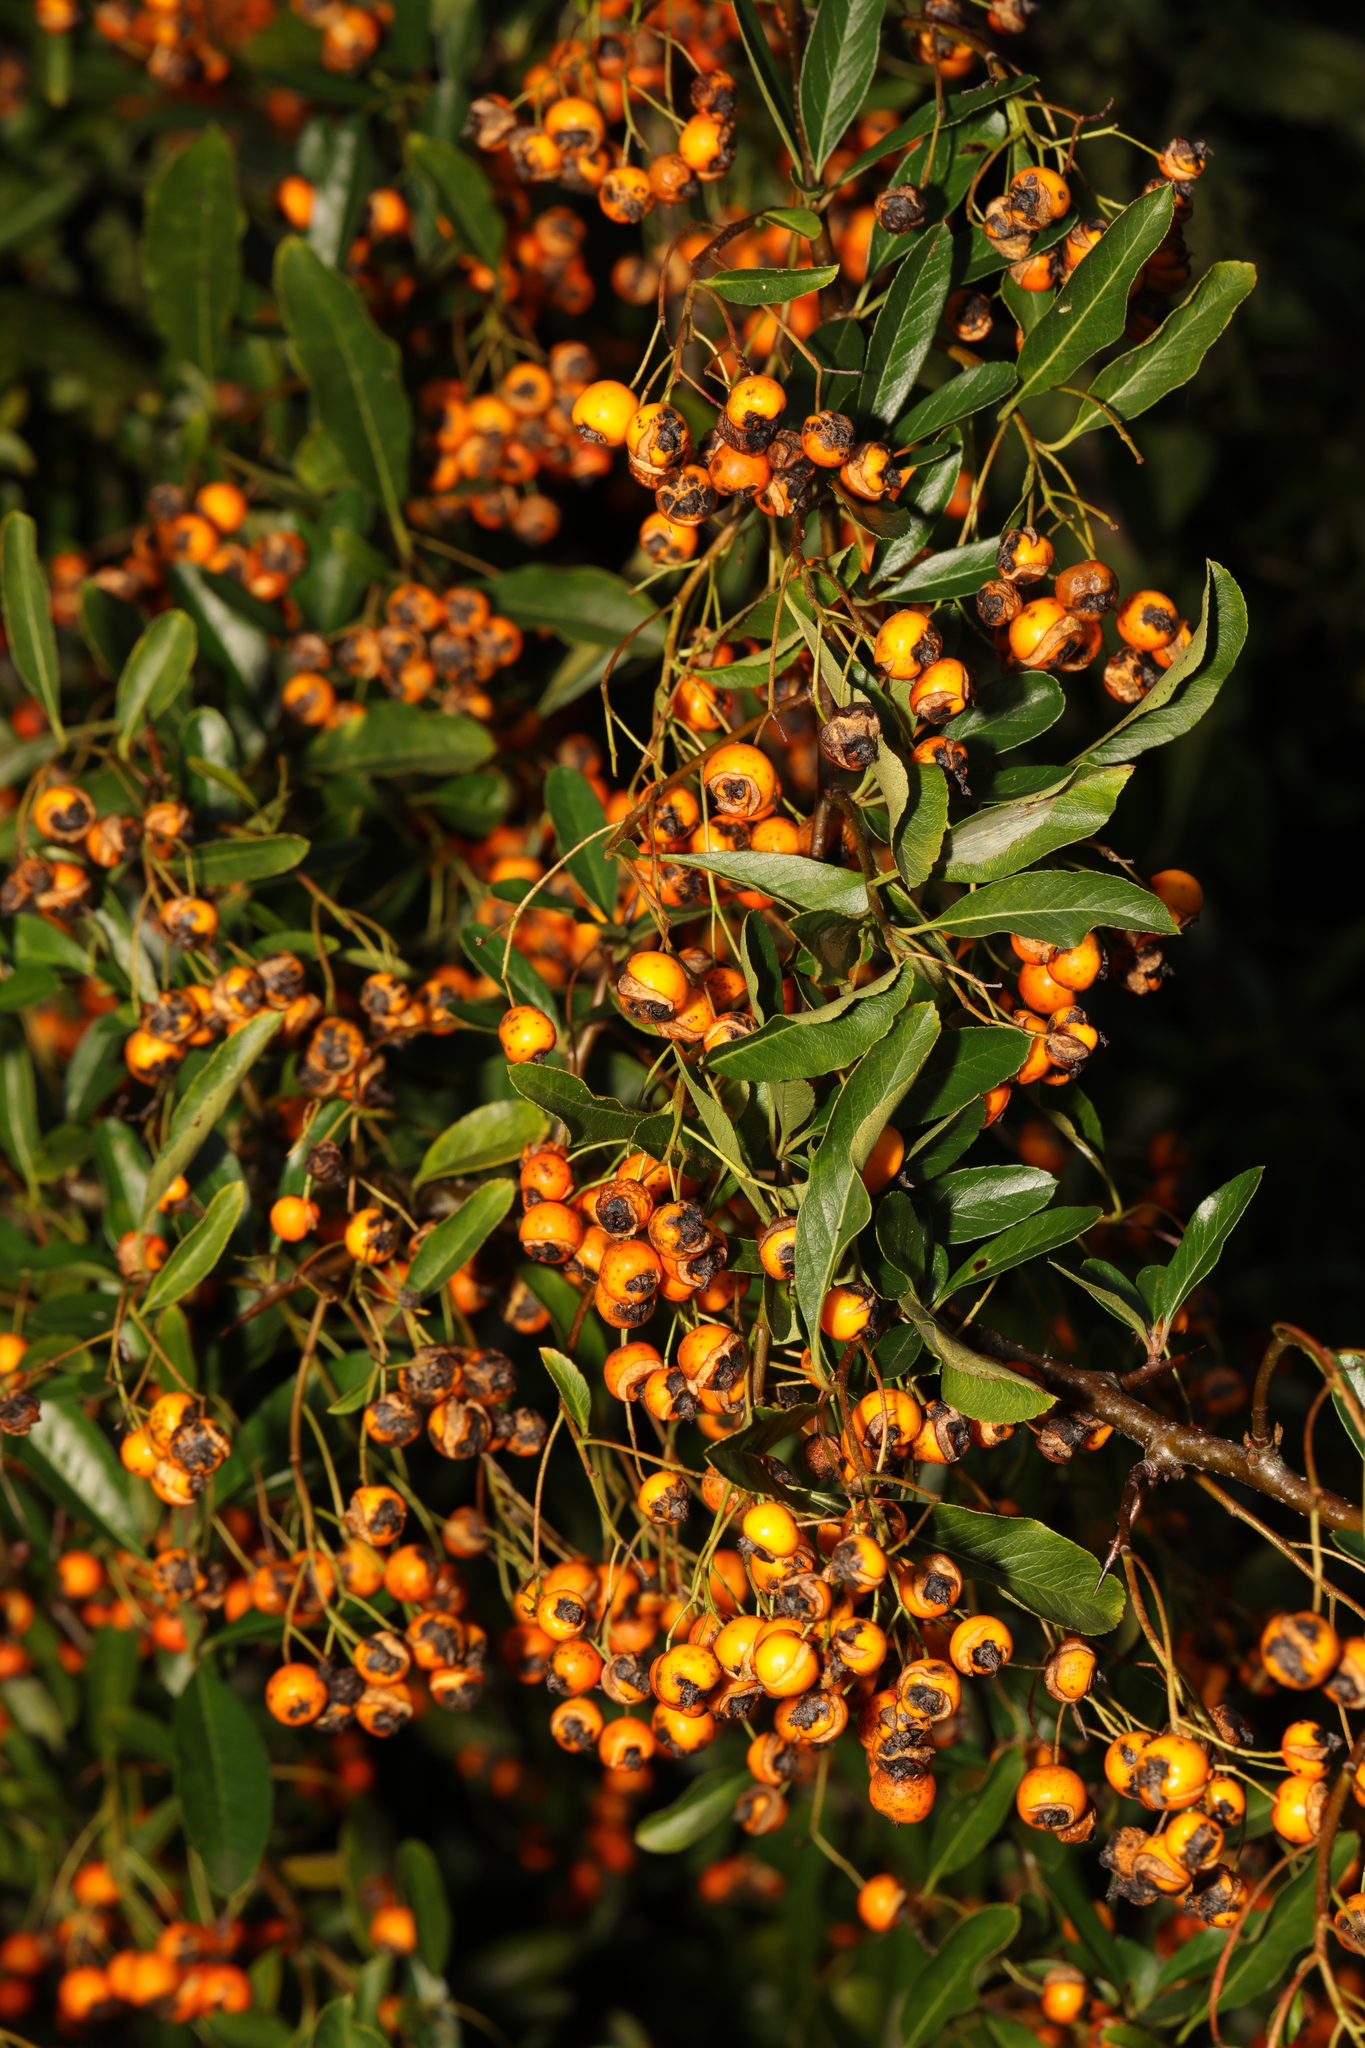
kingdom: Plantae
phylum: Tracheophyta
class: Magnoliopsida
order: Rosales
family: Rosaceae
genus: Pyracantha
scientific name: Pyracantha coccinea
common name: Firethorn
